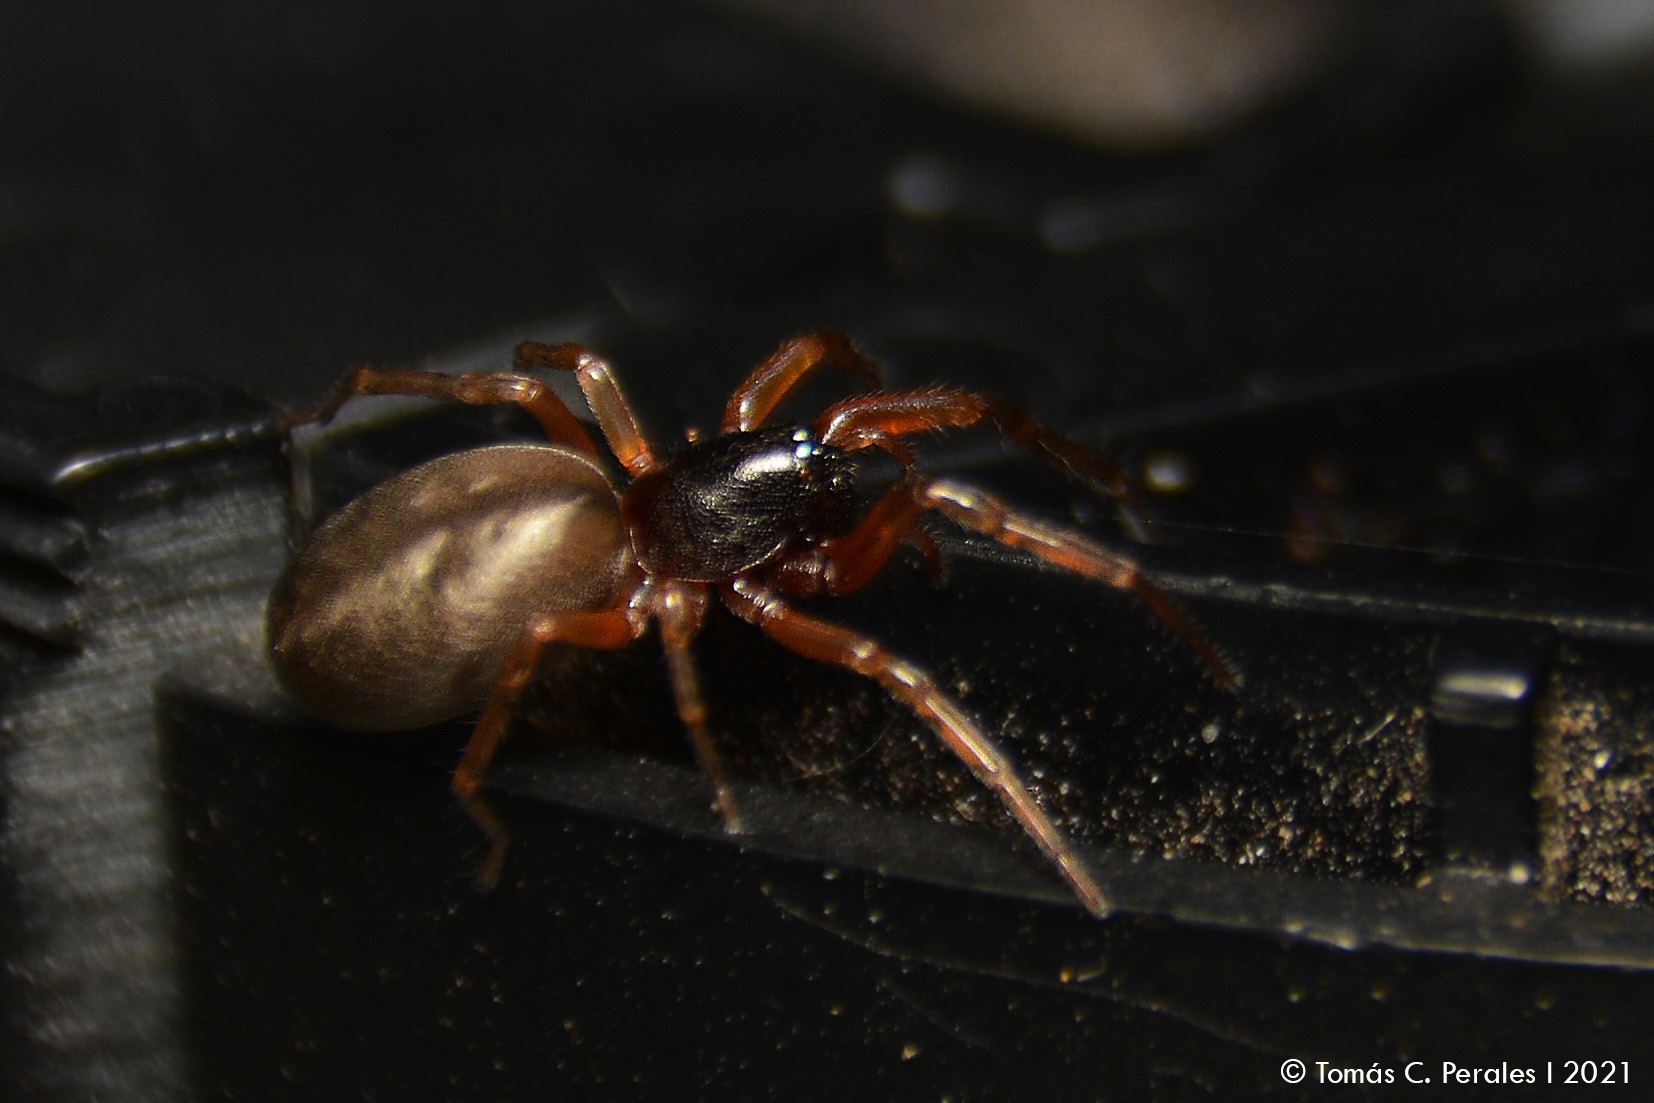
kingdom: Animalia
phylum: Arthropoda
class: Arachnida
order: Araneae
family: Trachelidae
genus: Meriola
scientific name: Meriola
